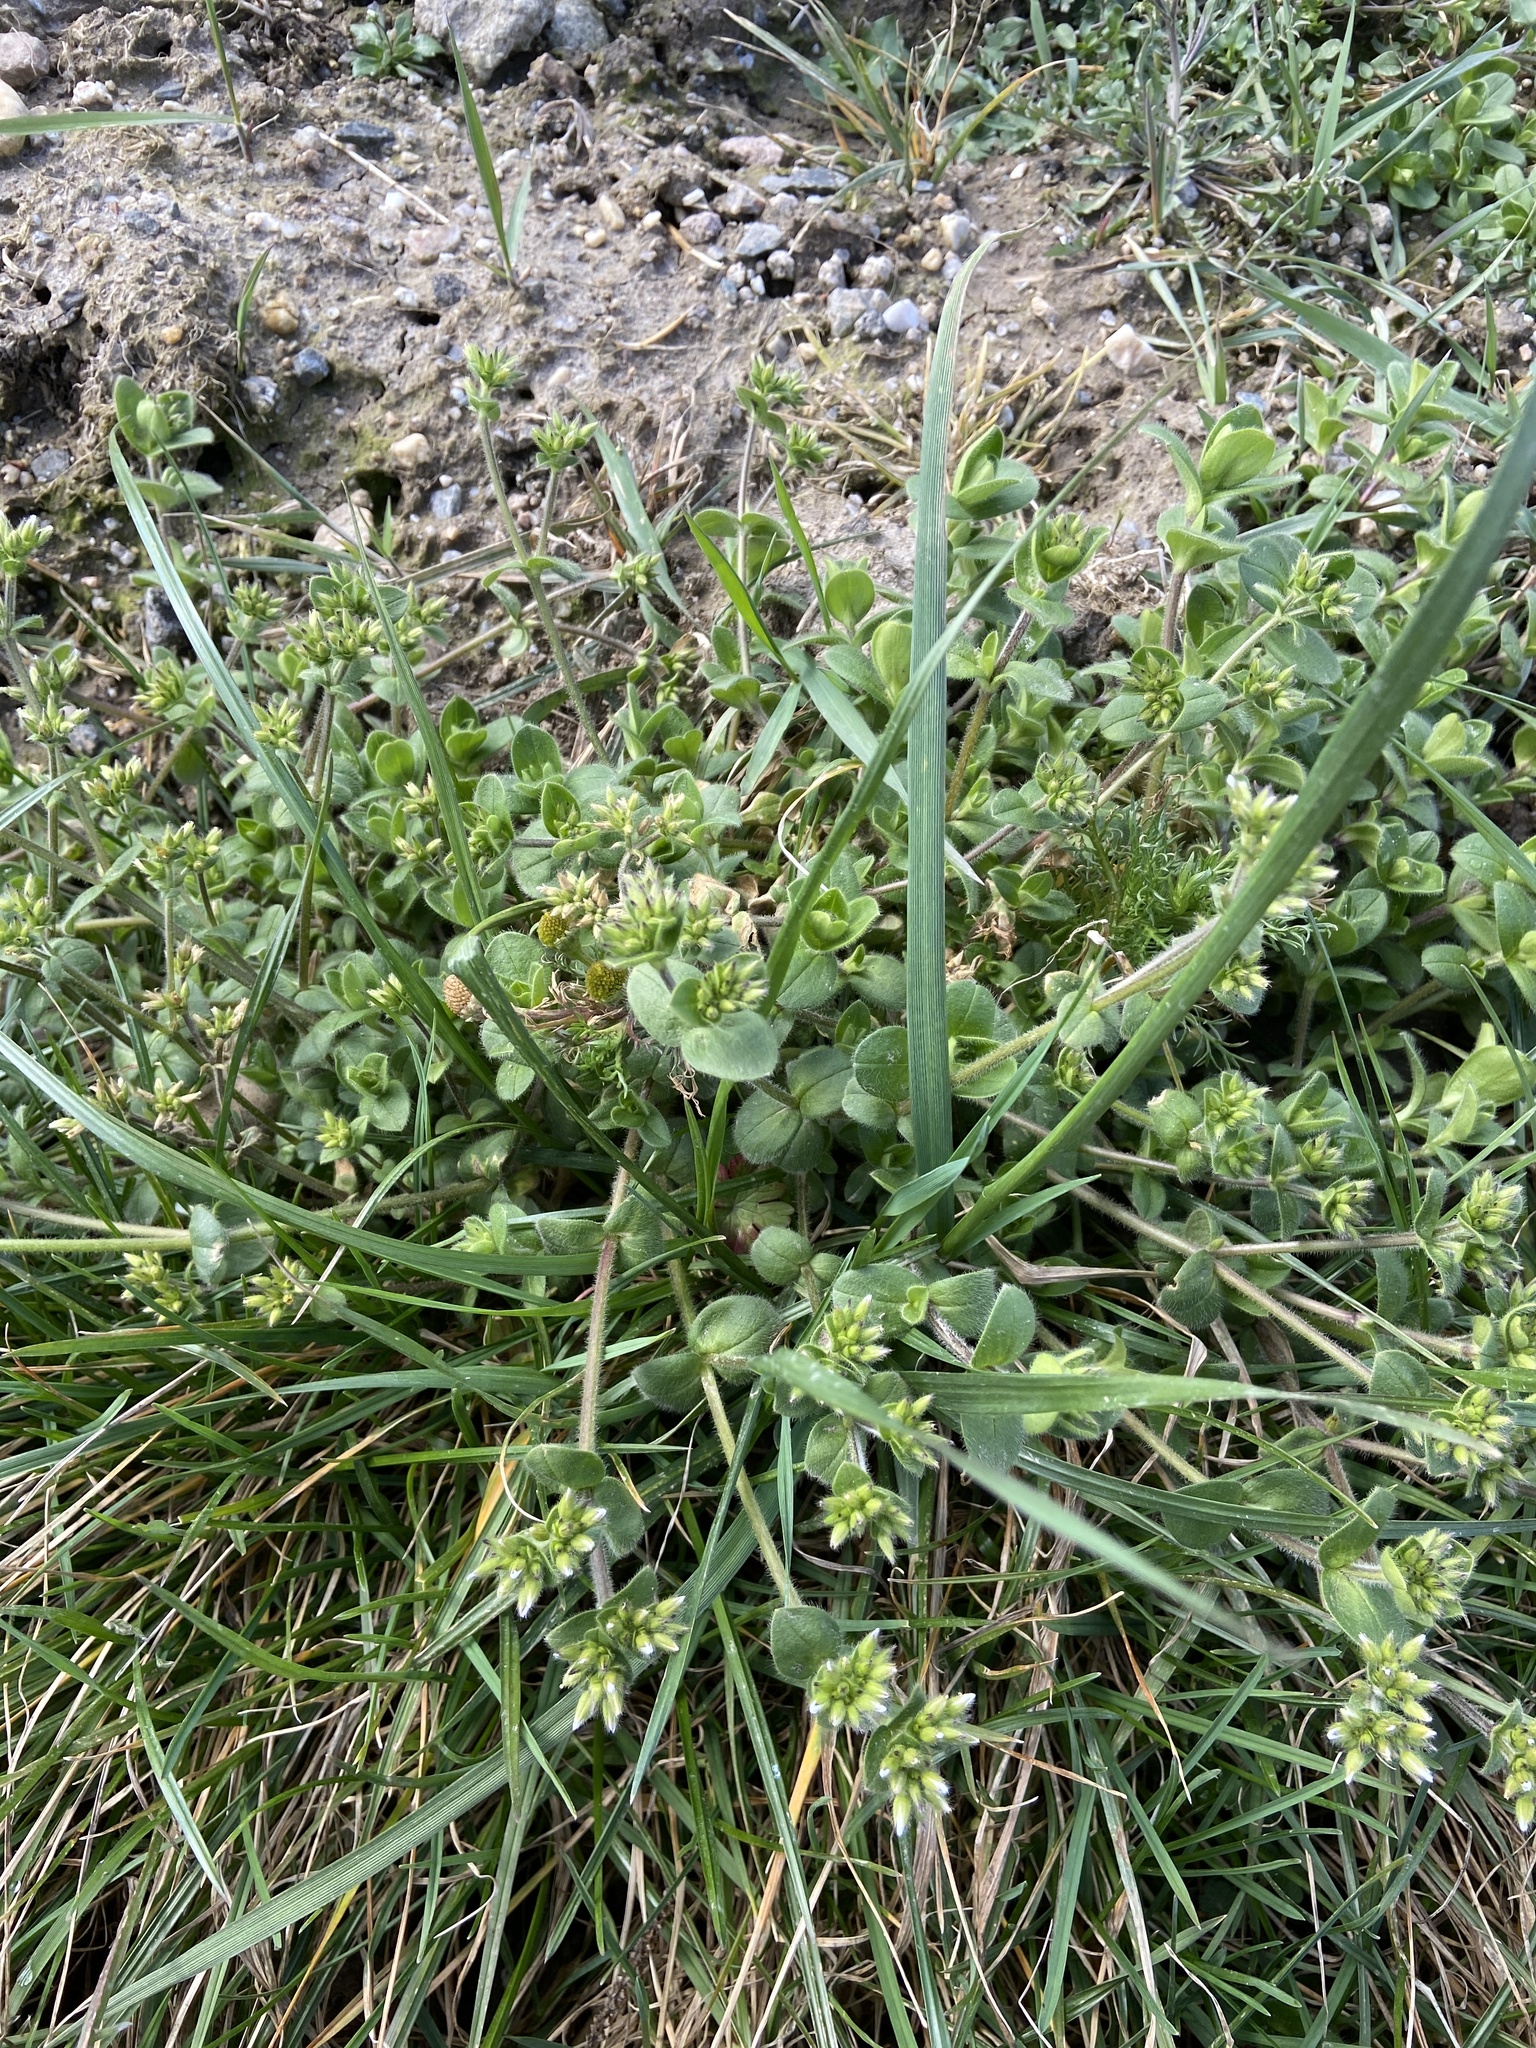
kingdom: Plantae
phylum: Tracheophyta
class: Magnoliopsida
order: Caryophyllales
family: Caryophyllaceae
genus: Cerastium
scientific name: Cerastium glomeratum
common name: Sticky chickweed
